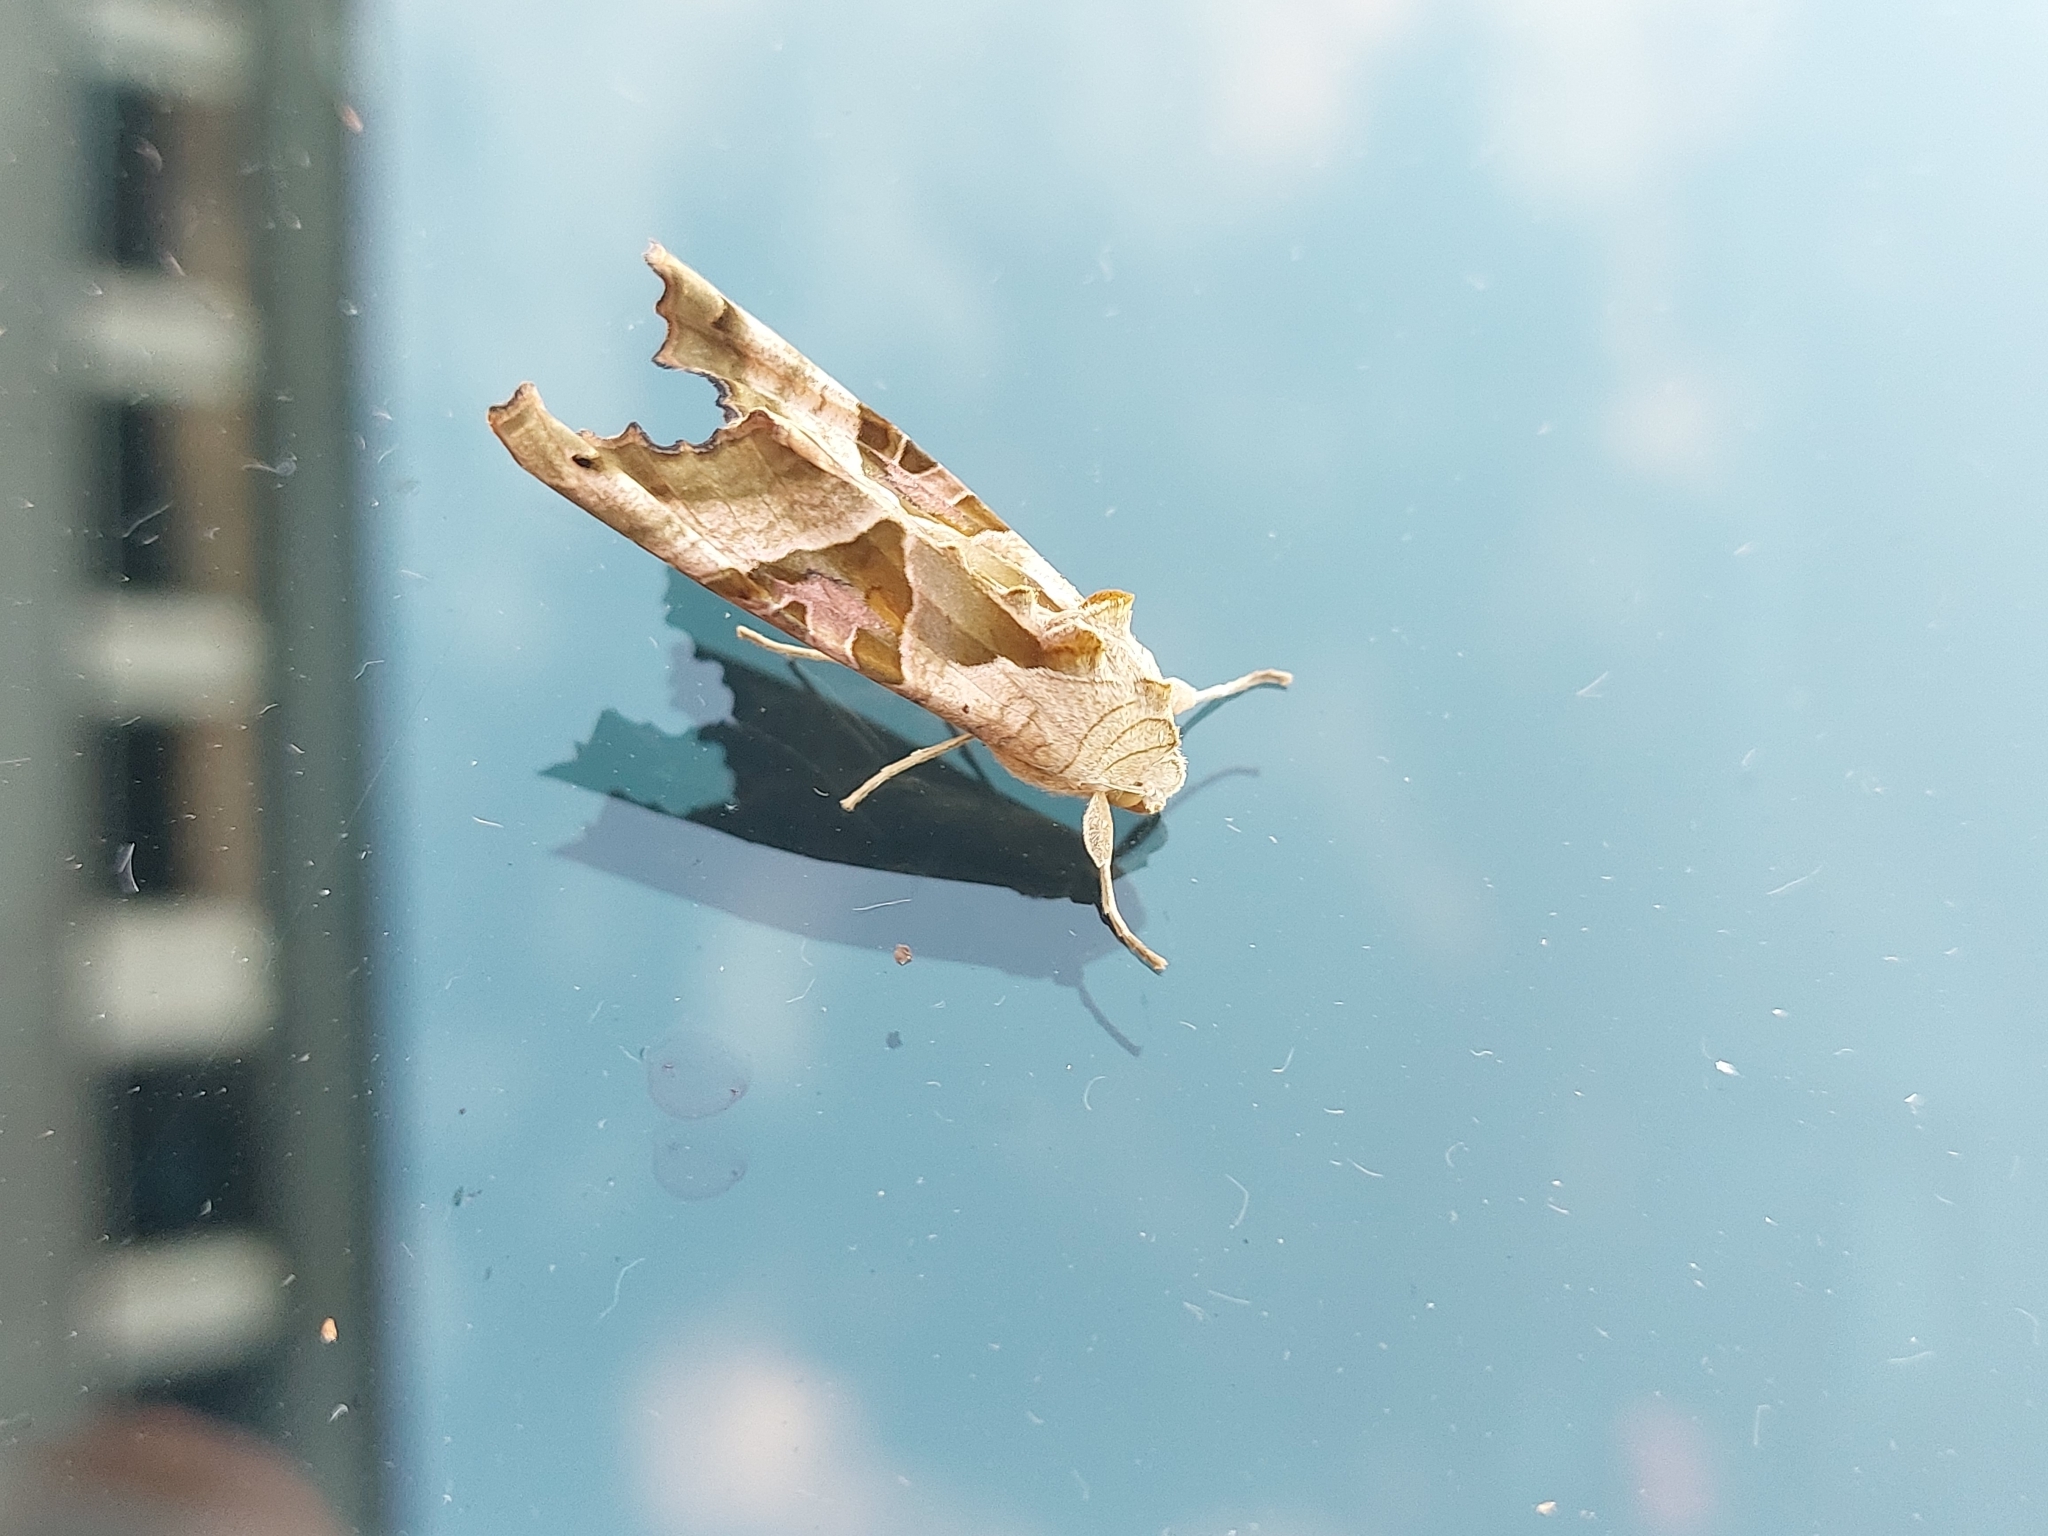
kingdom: Animalia
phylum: Arthropoda
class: Insecta
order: Lepidoptera
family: Noctuidae
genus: Phlogophora
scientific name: Phlogophora meticulosa
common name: Angle shades
